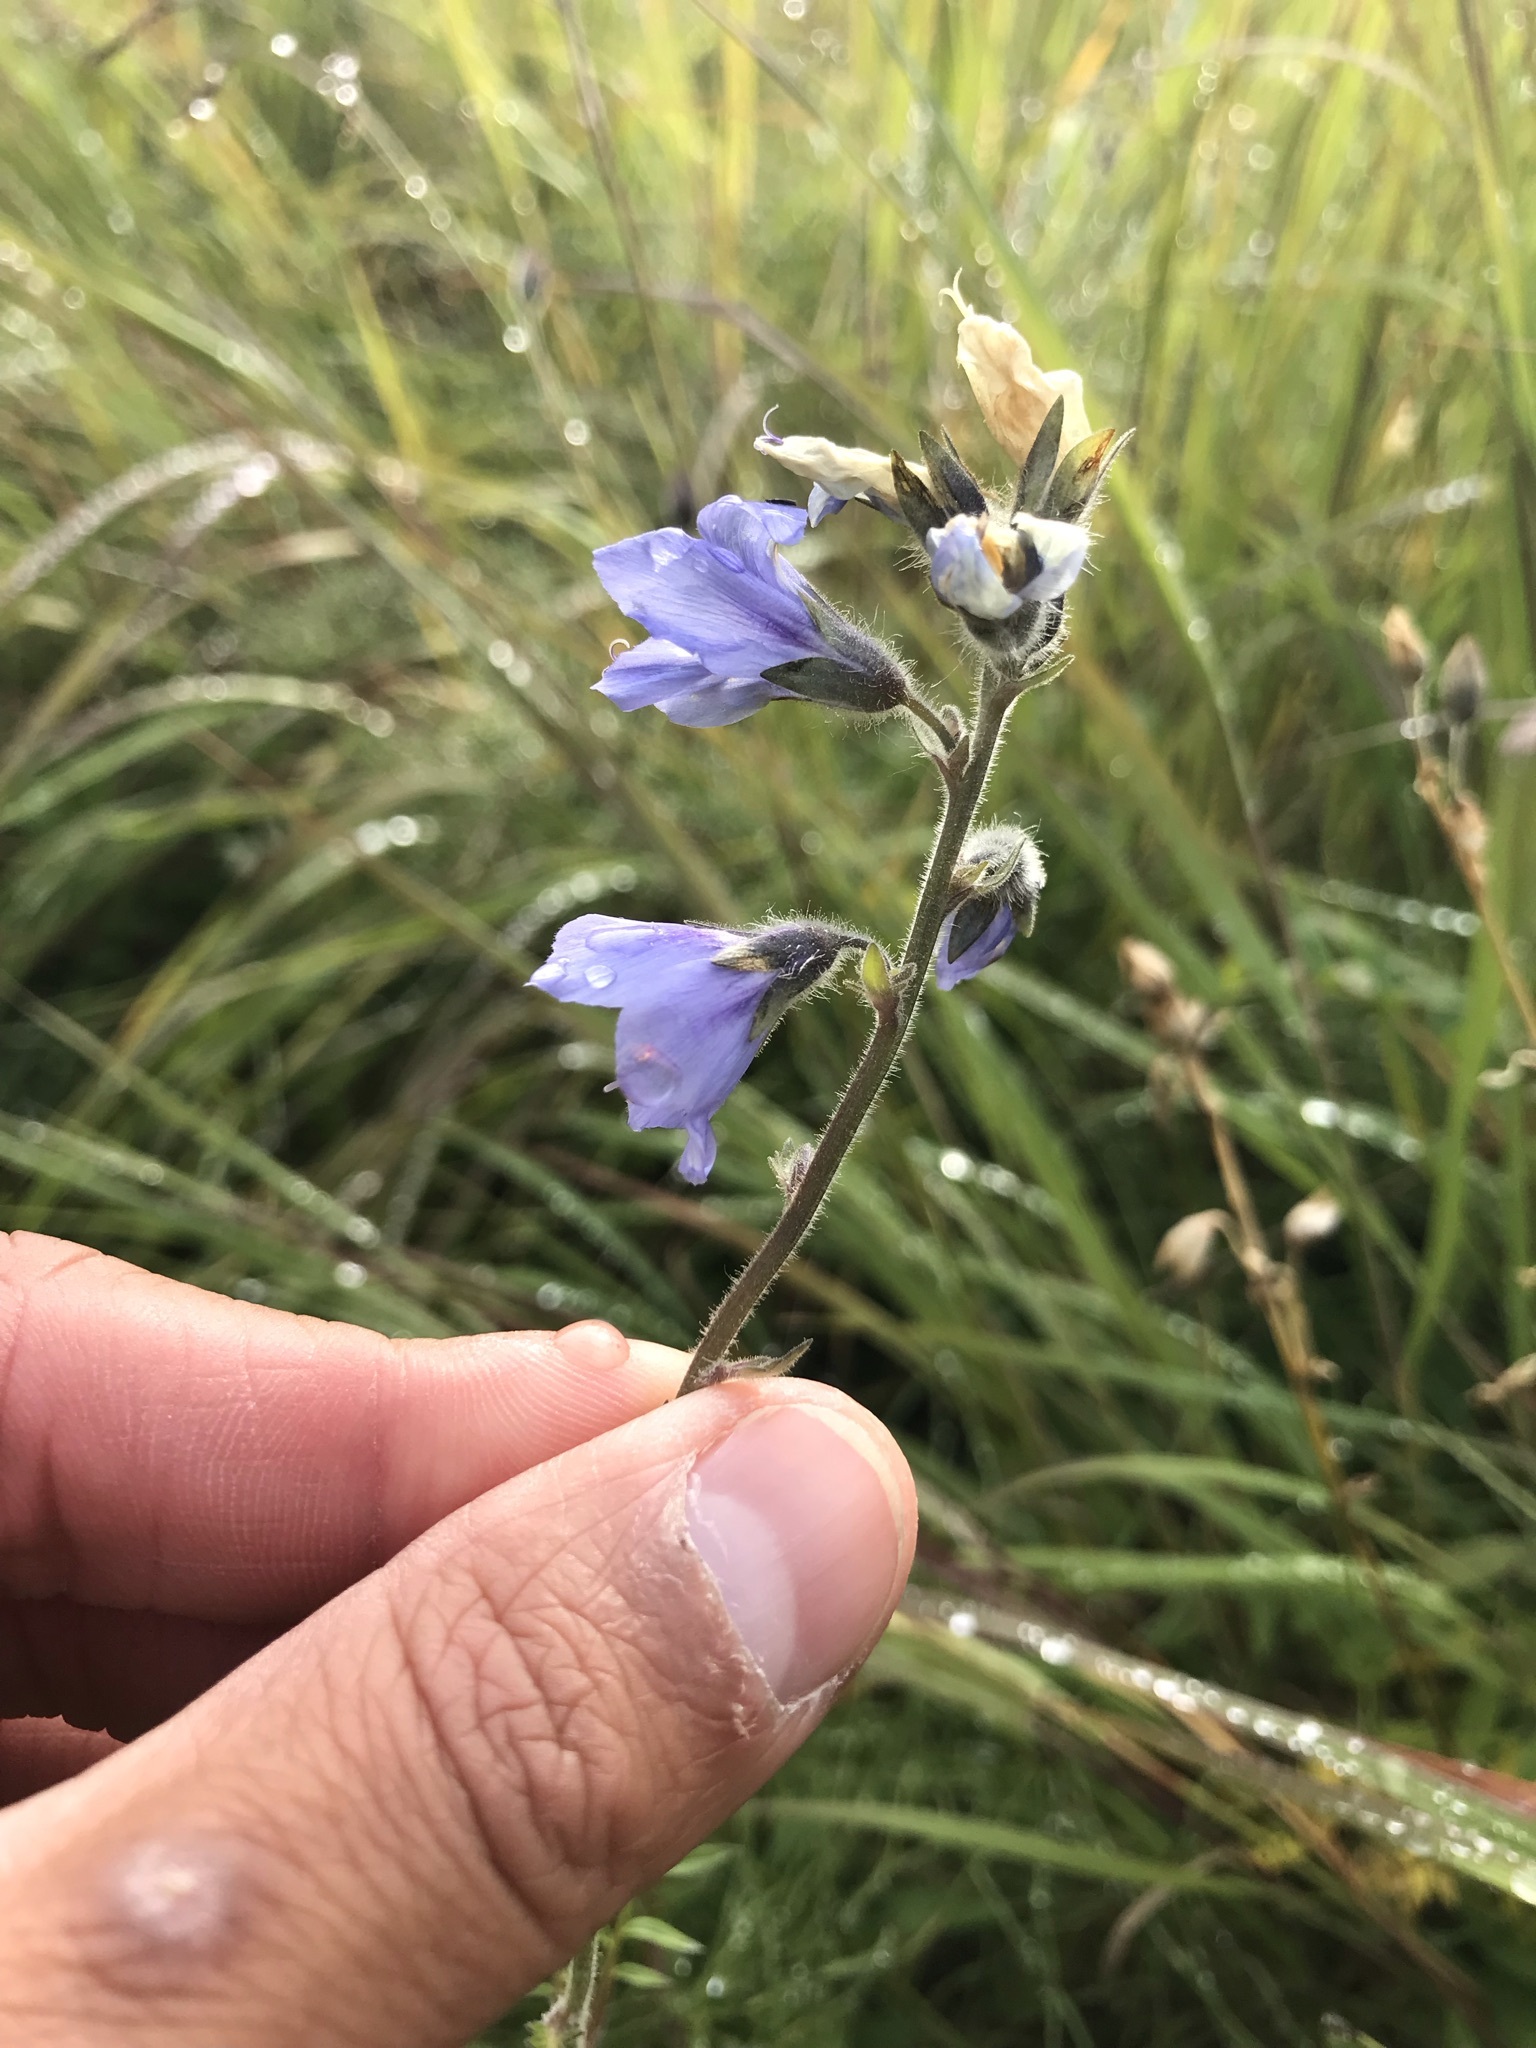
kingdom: Plantae
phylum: Tracheophyta
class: Magnoliopsida
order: Ericales
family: Polemoniaceae
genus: Polemonium
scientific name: Polemonium acutiflorum
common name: Tall jacob's-ladder
